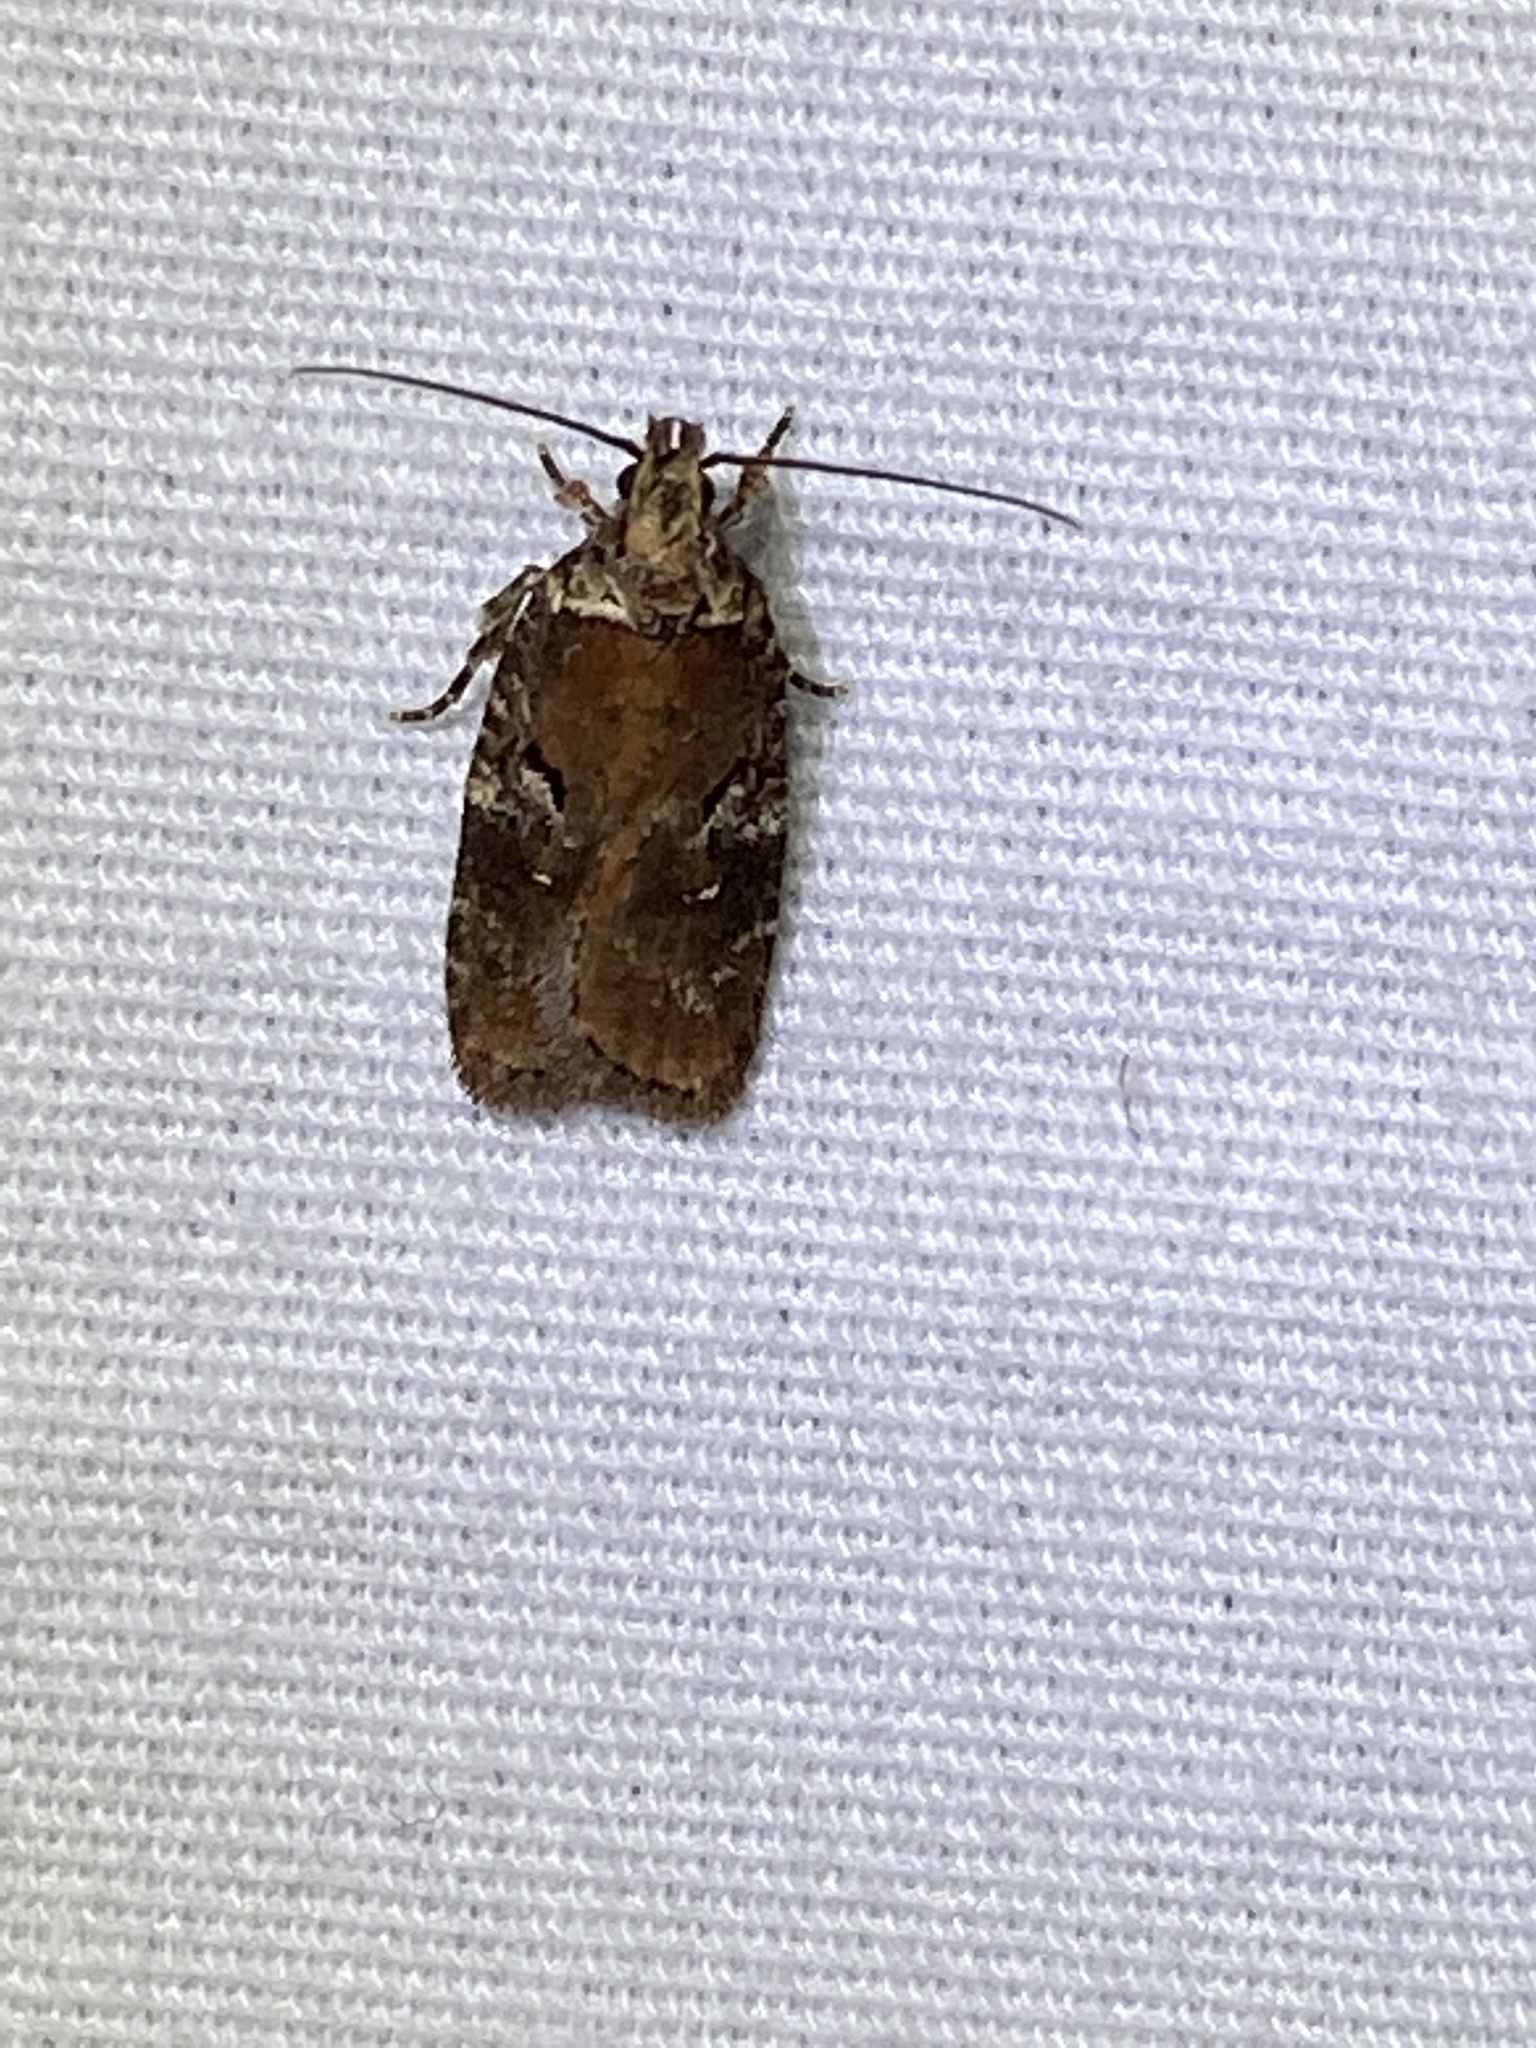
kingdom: Animalia
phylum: Arthropoda
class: Insecta
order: Lepidoptera
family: Depressariidae
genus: Agonopterix
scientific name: Agonopterix lythrella
